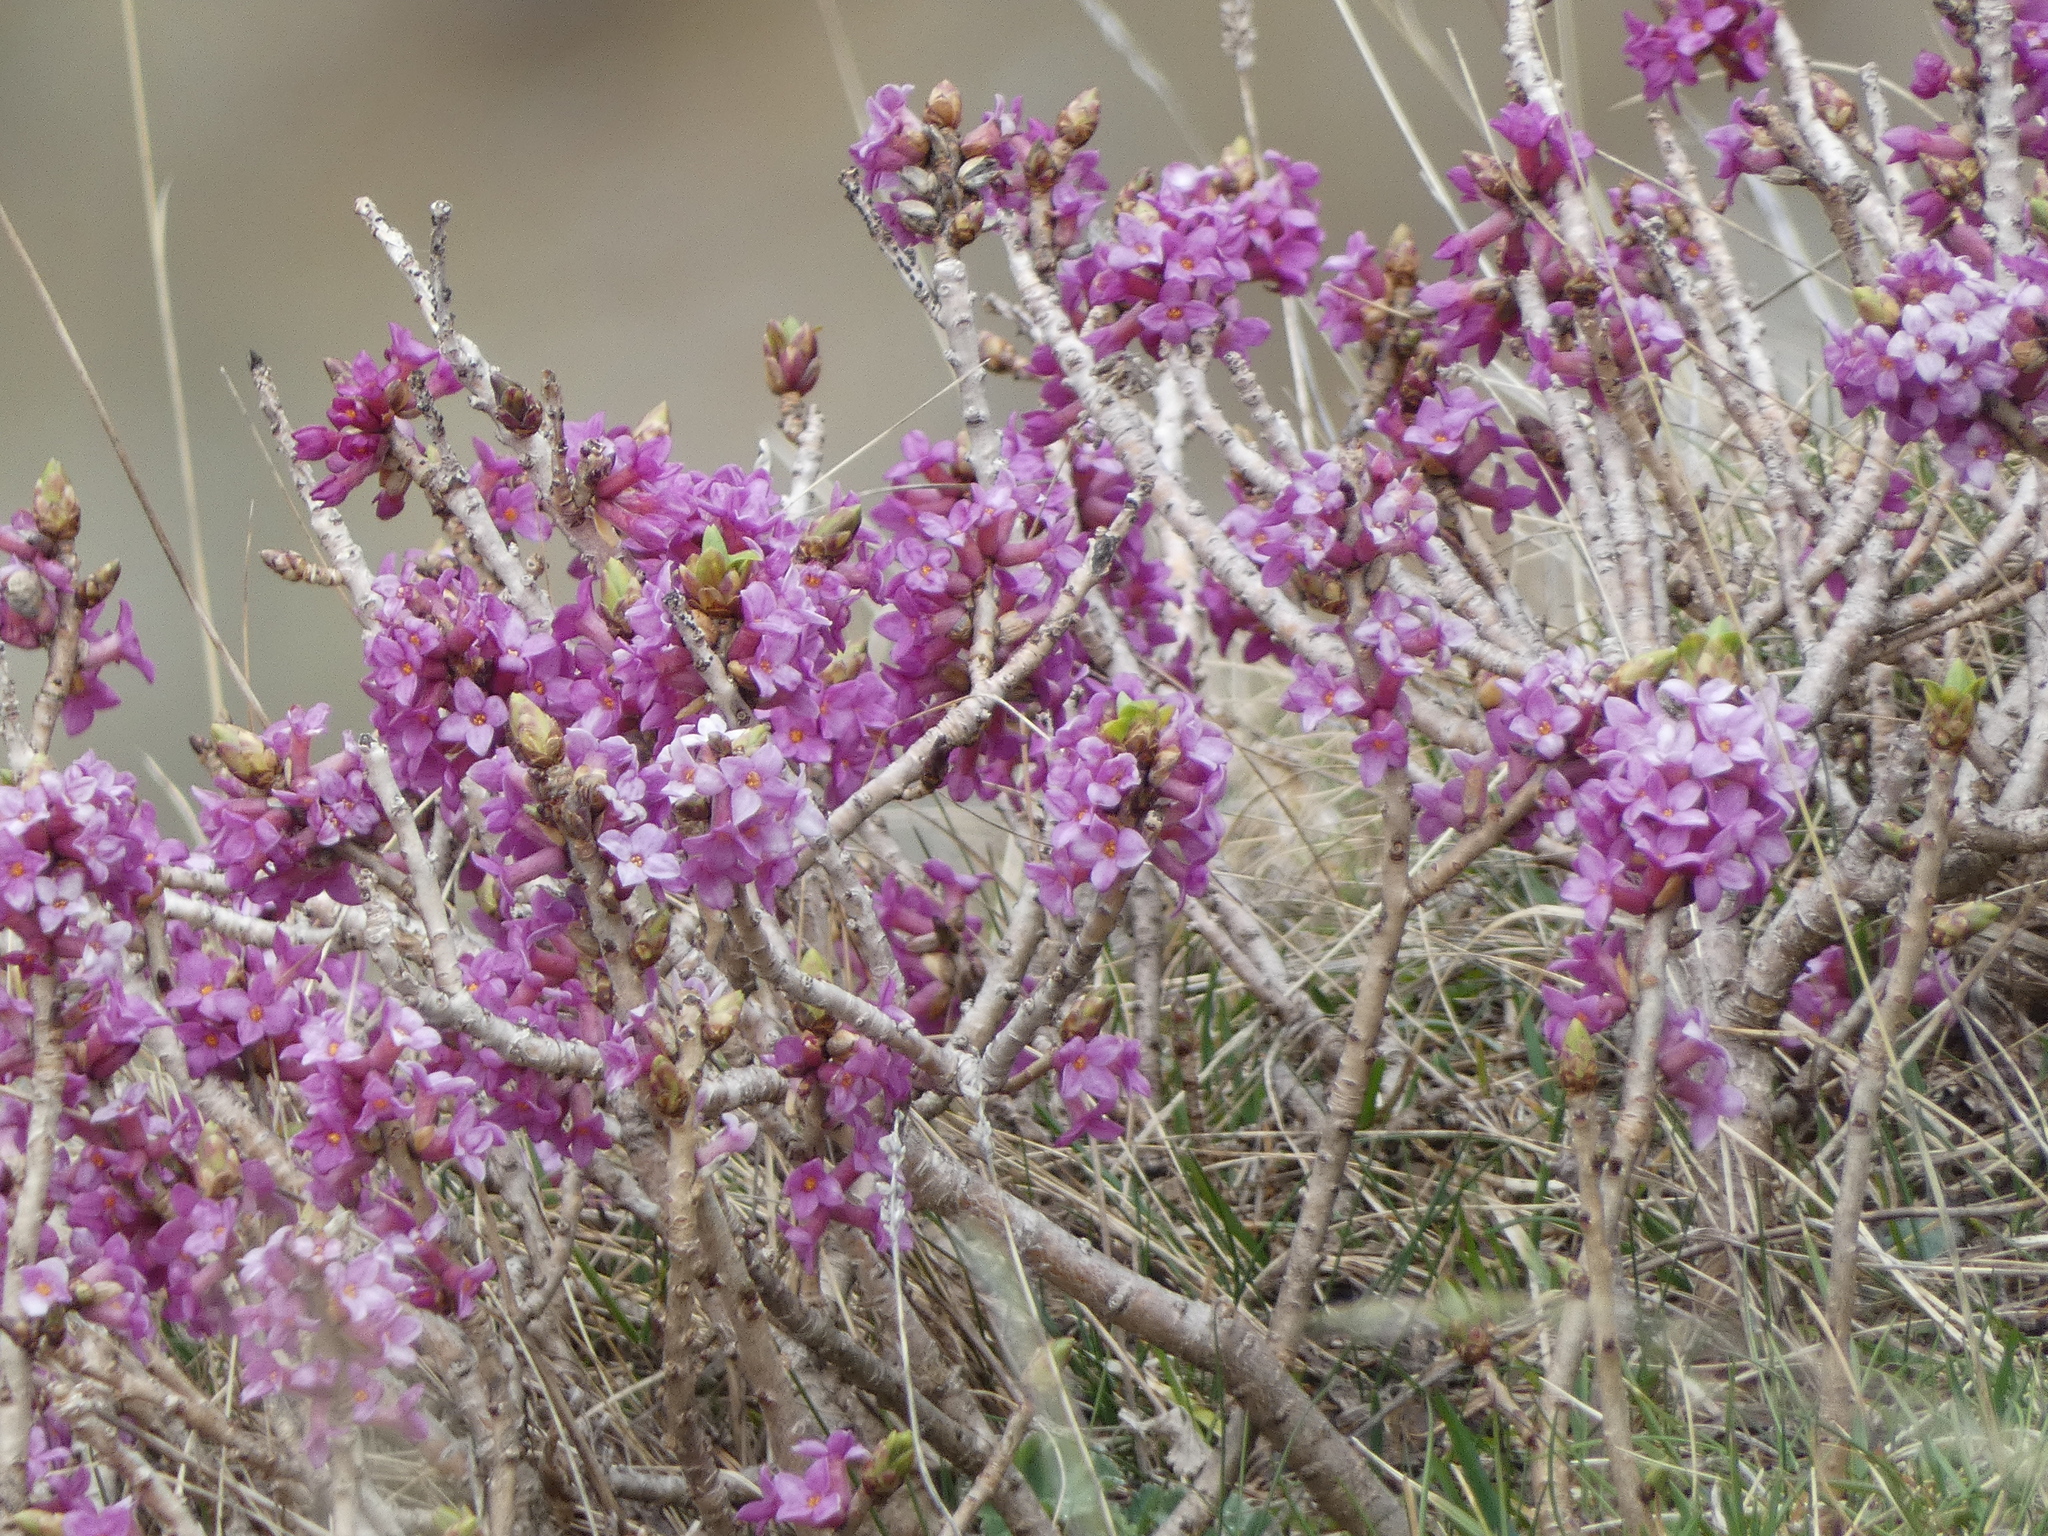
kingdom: Plantae
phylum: Tracheophyta
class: Magnoliopsida
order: Malvales
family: Thymelaeaceae
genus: Daphne
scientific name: Daphne mezereum
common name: Mezereon
